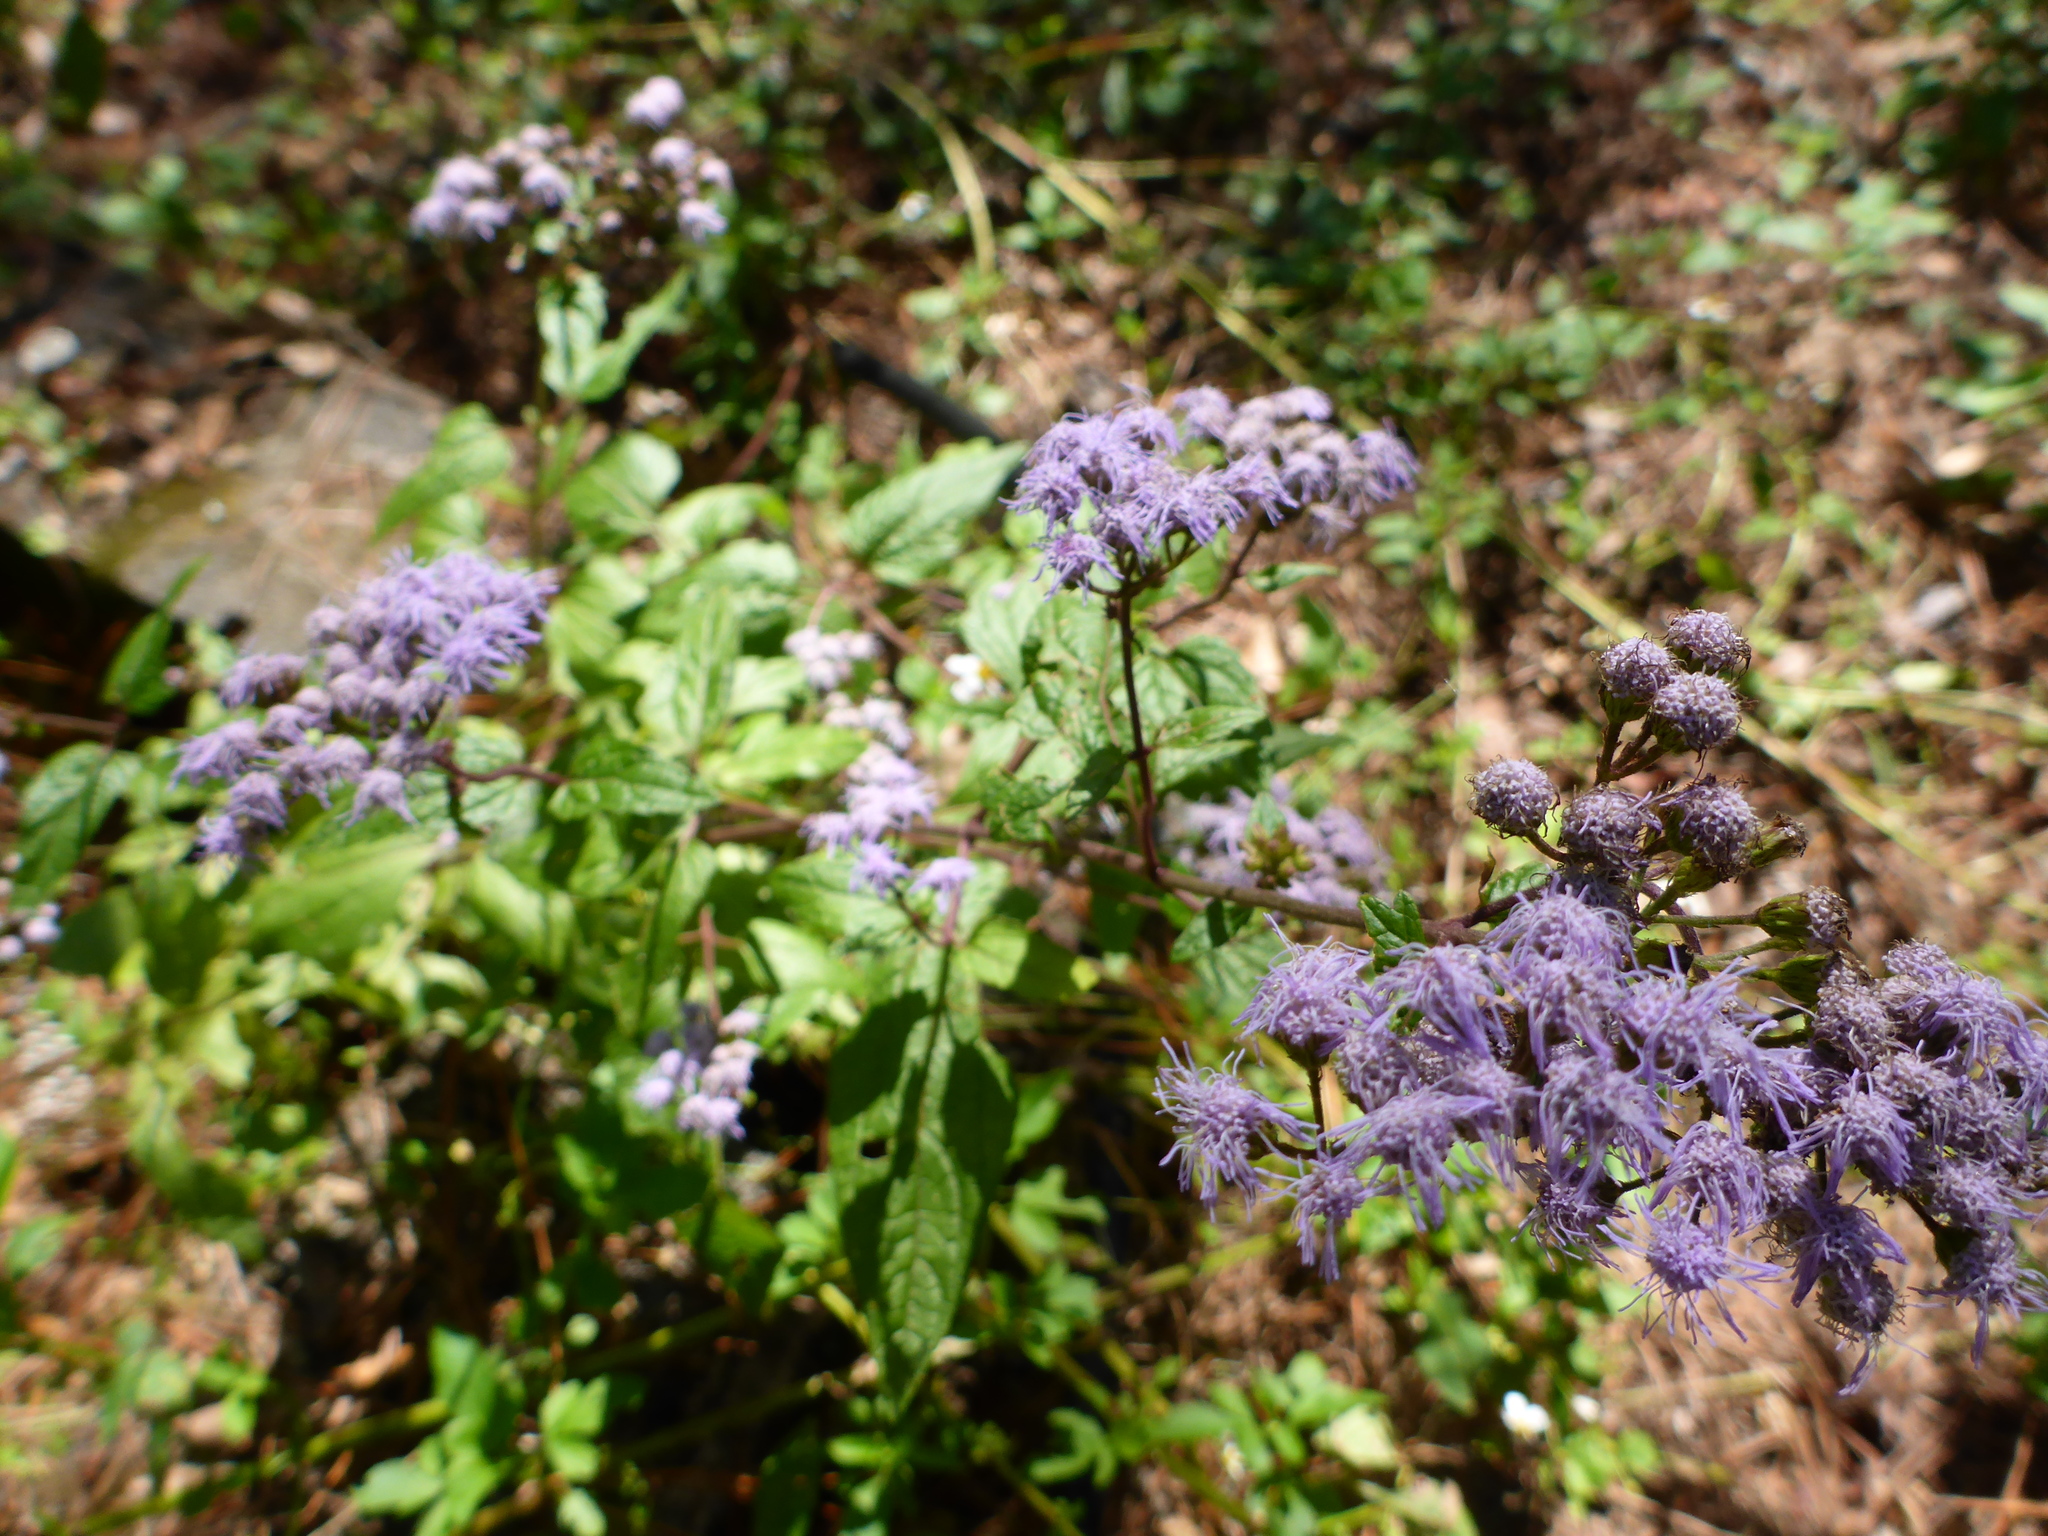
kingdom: Plantae
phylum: Tracheophyta
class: Magnoliopsida
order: Asterales
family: Asteraceae
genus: Conoclinium
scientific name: Conoclinium coelestinum
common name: Blue mistflower
